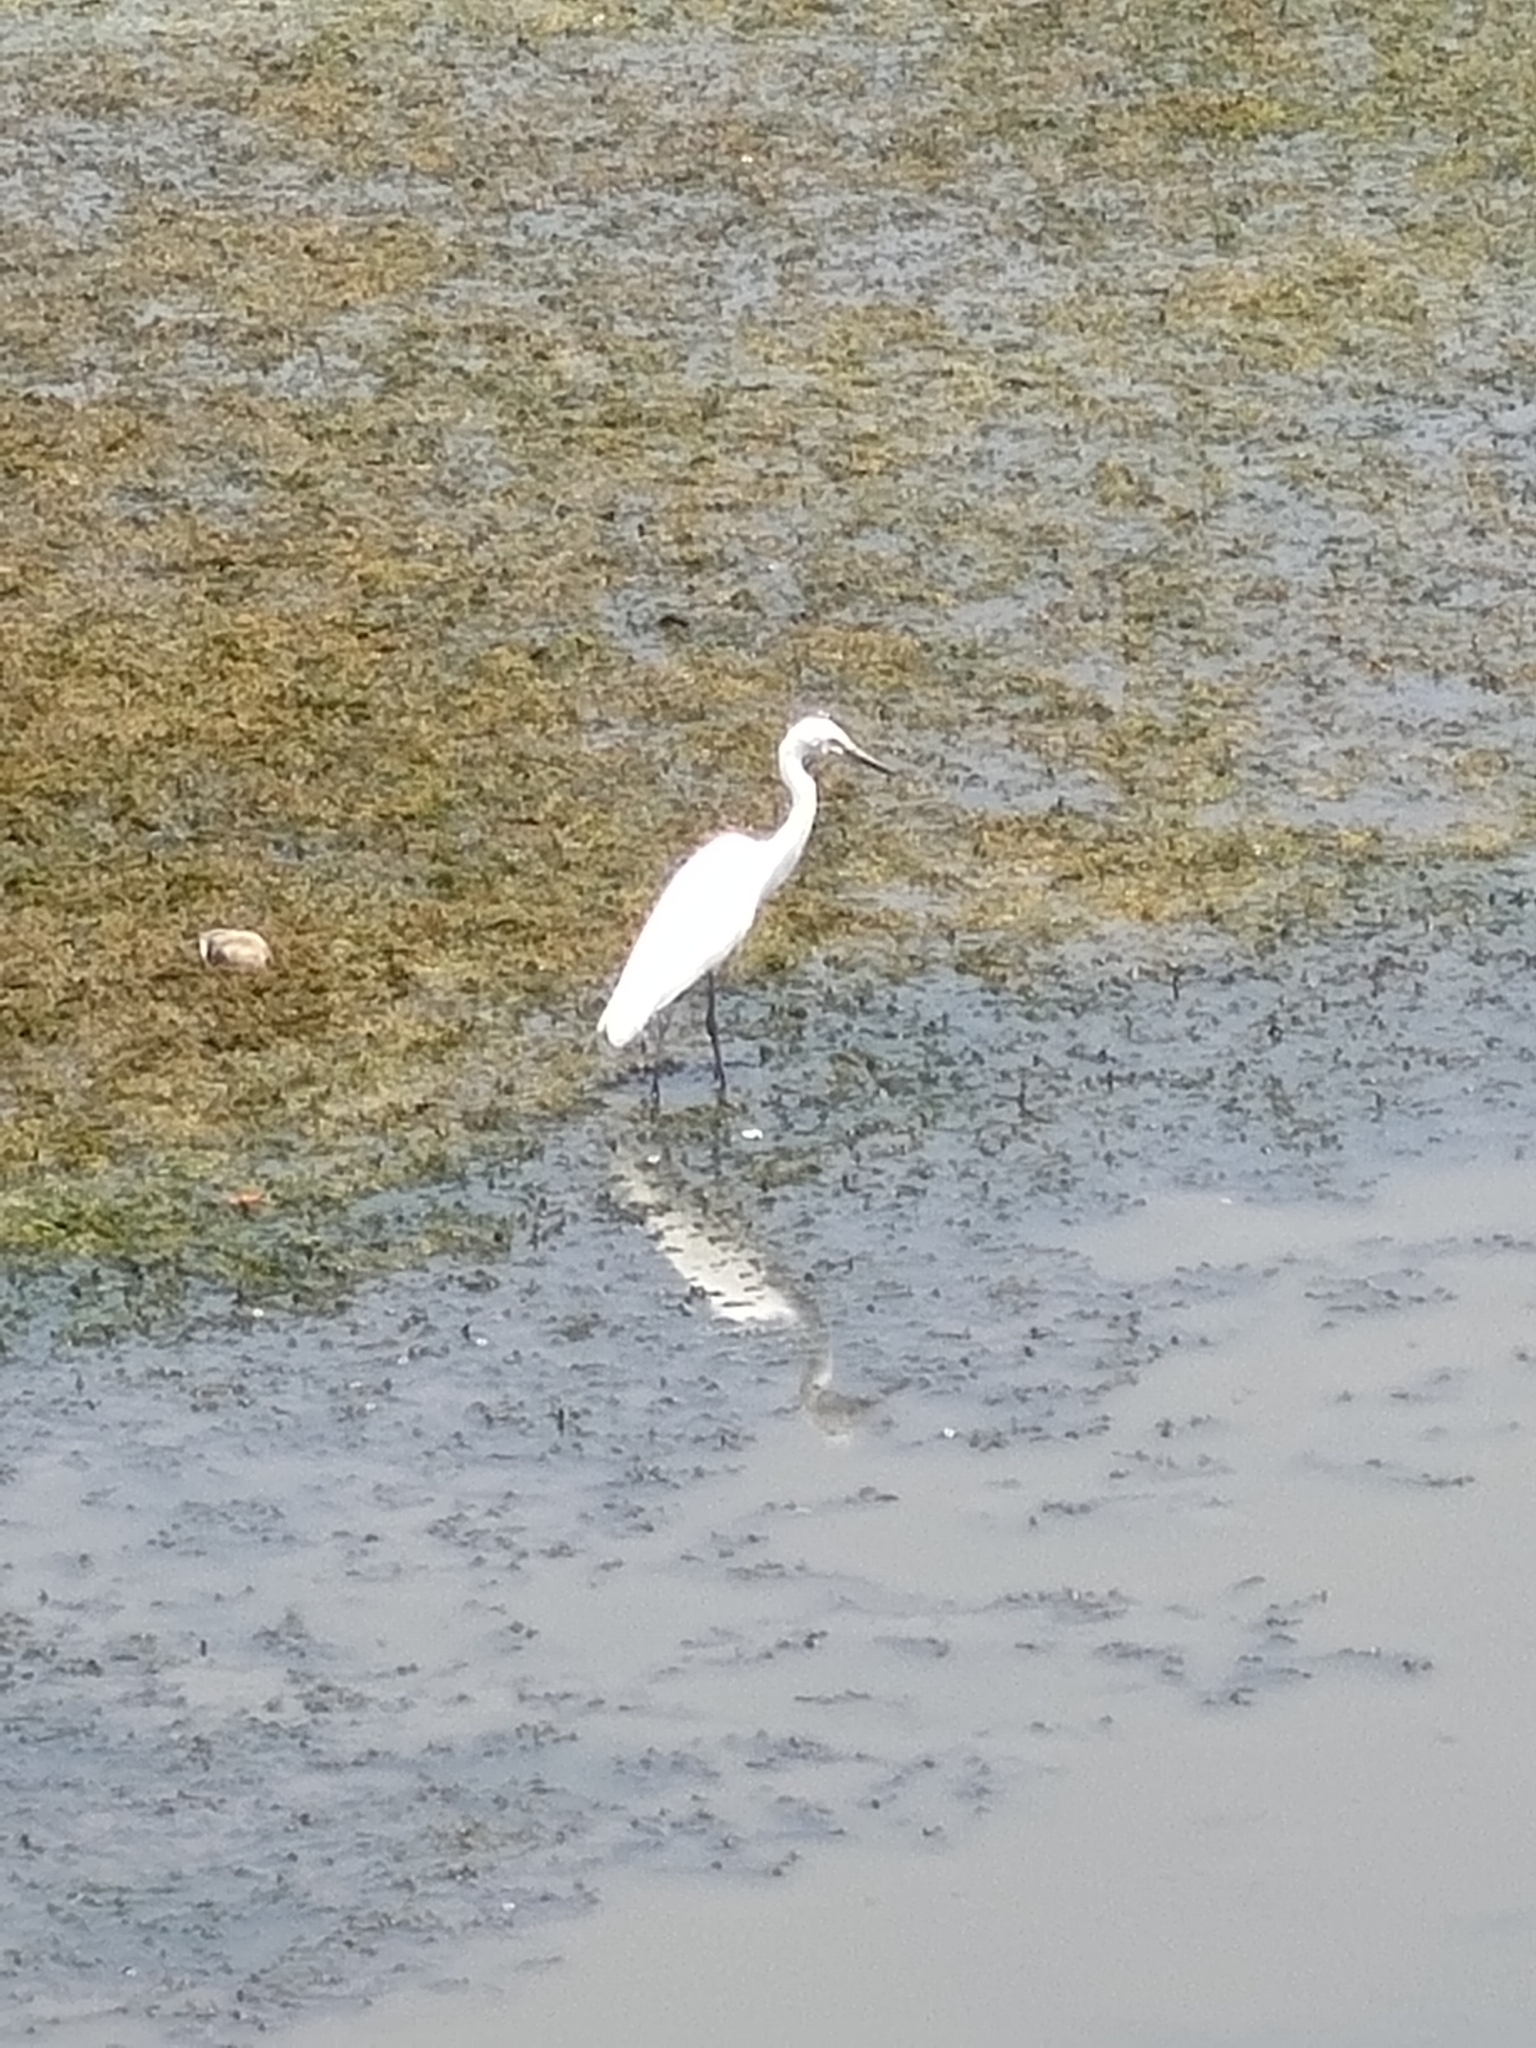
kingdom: Animalia
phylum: Chordata
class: Aves
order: Pelecaniformes
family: Ardeidae
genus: Egretta
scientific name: Egretta garzetta
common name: Little egret
